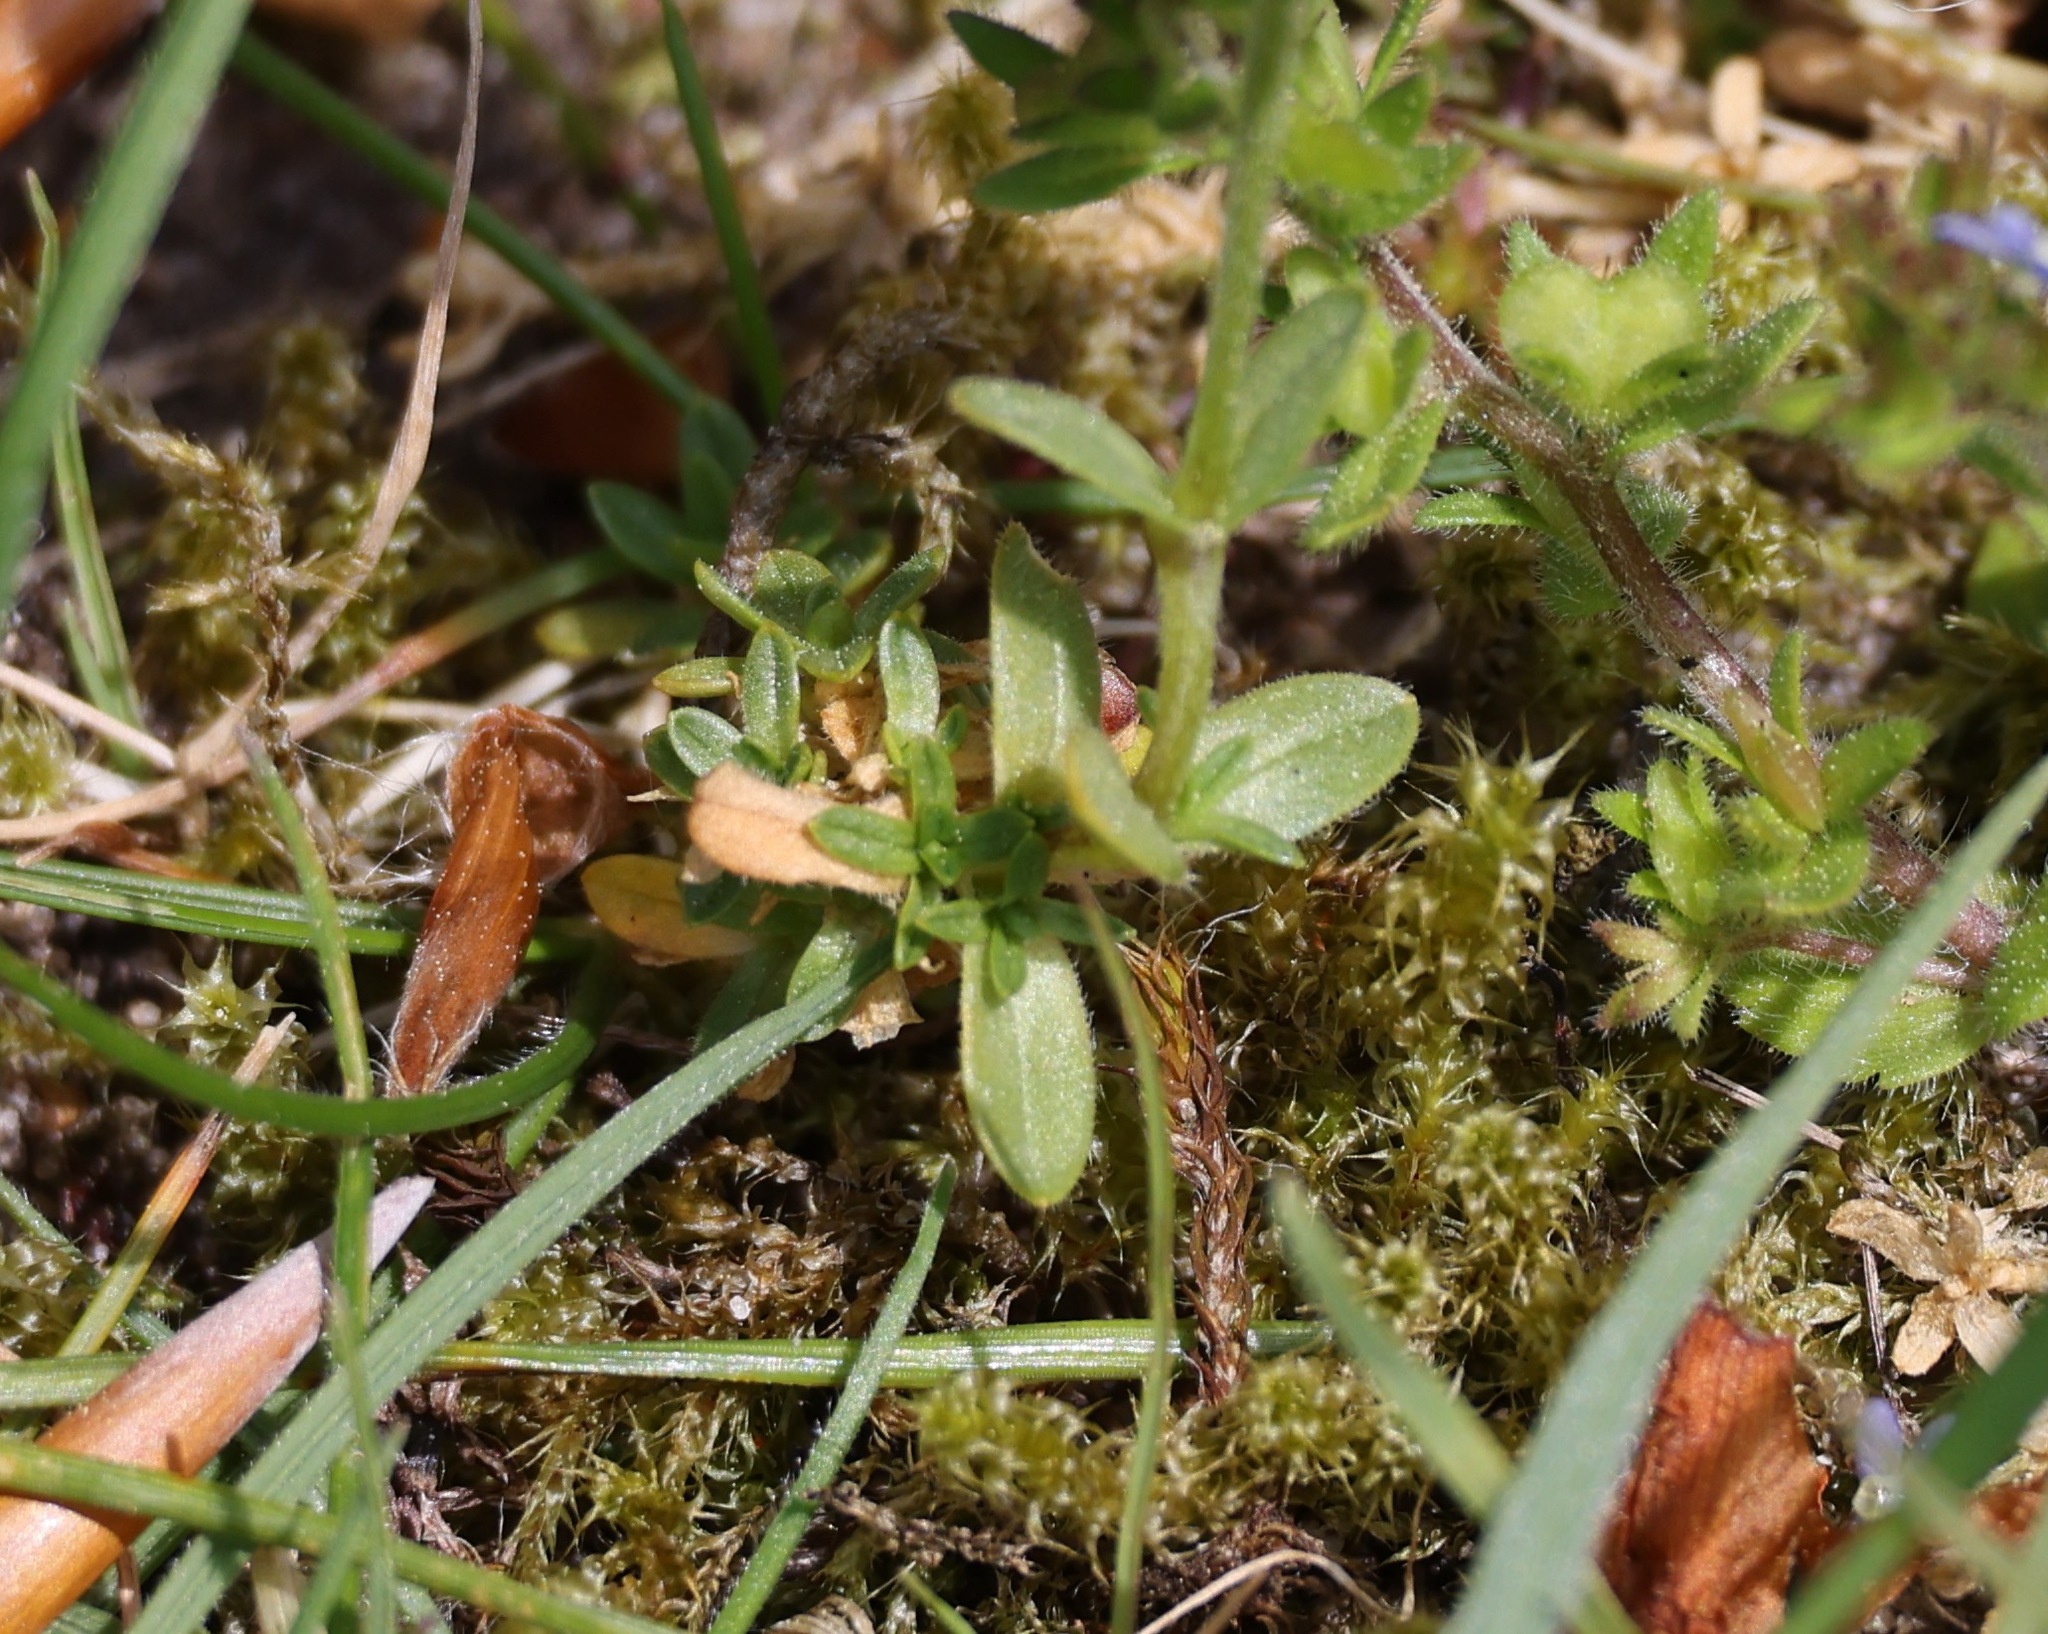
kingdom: Plantae
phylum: Tracheophyta
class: Magnoliopsida
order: Caryophyllales
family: Caryophyllaceae
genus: Cerastium
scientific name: Cerastium arvense
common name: Field mouse-ear
